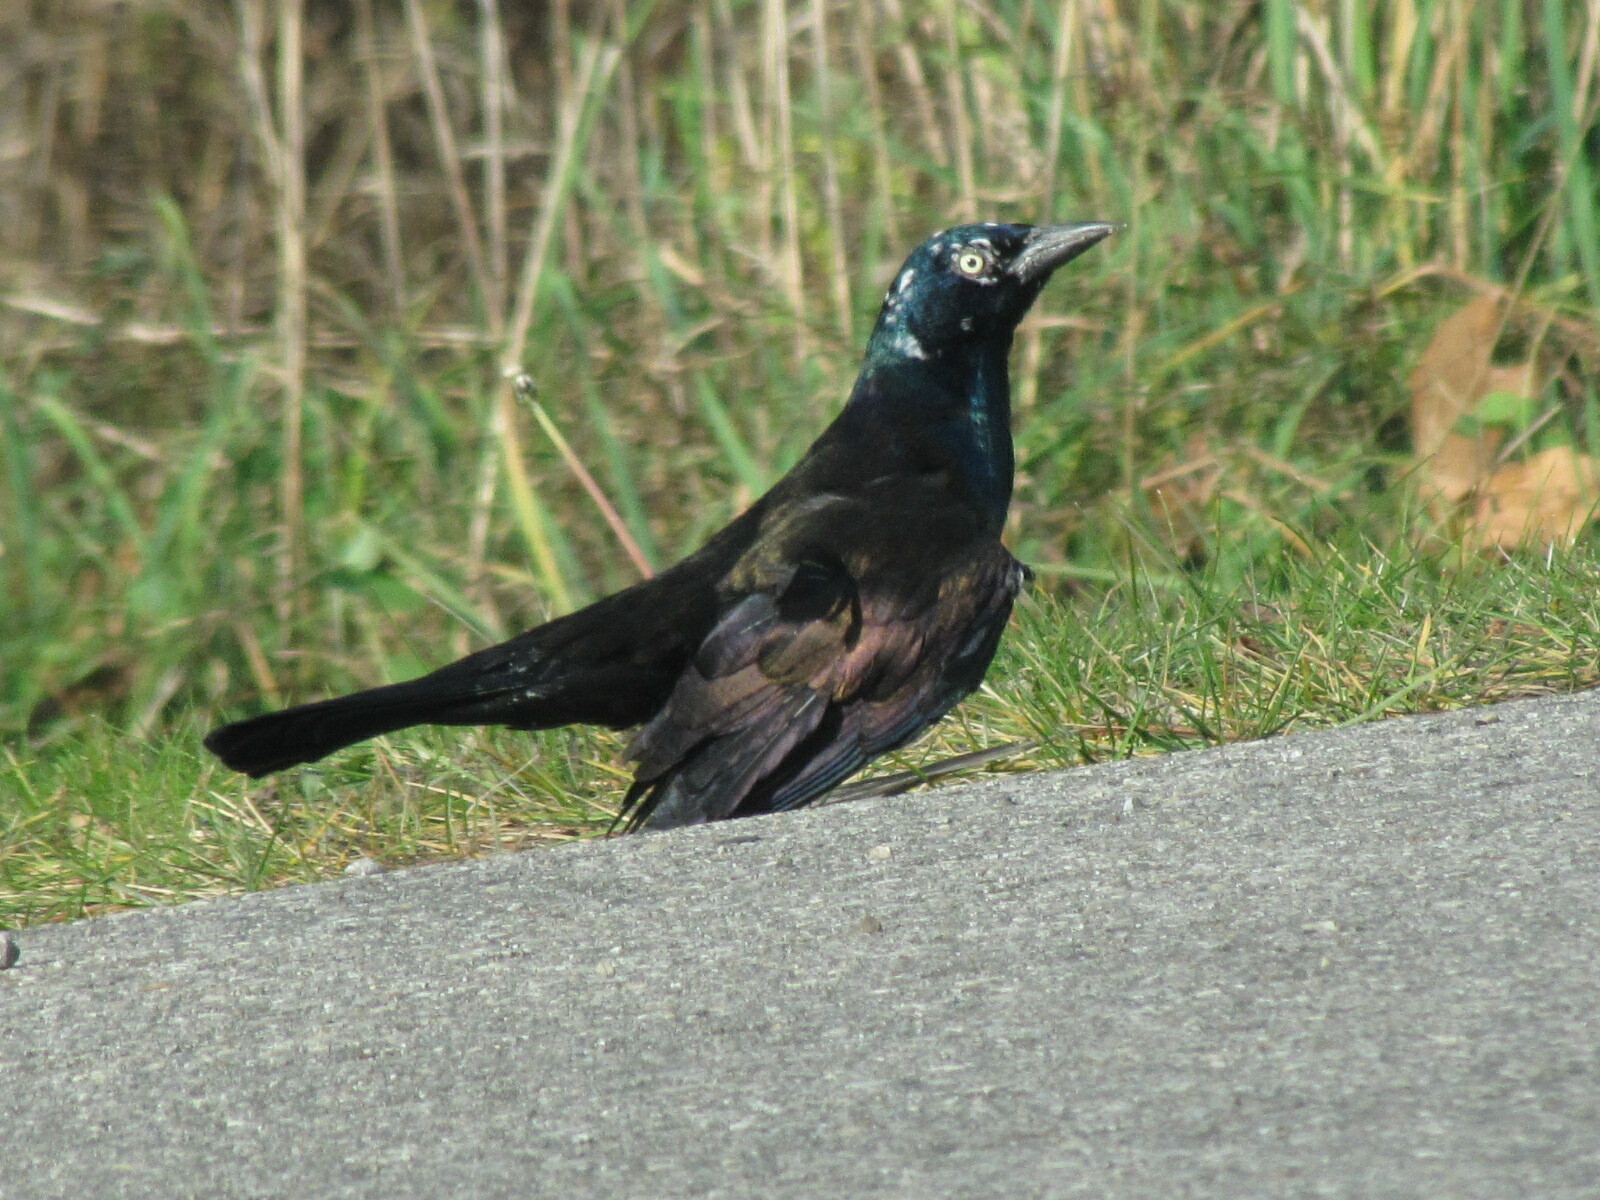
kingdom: Animalia
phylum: Chordata
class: Aves
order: Passeriformes
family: Icteridae
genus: Quiscalus
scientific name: Quiscalus quiscula
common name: Common grackle
